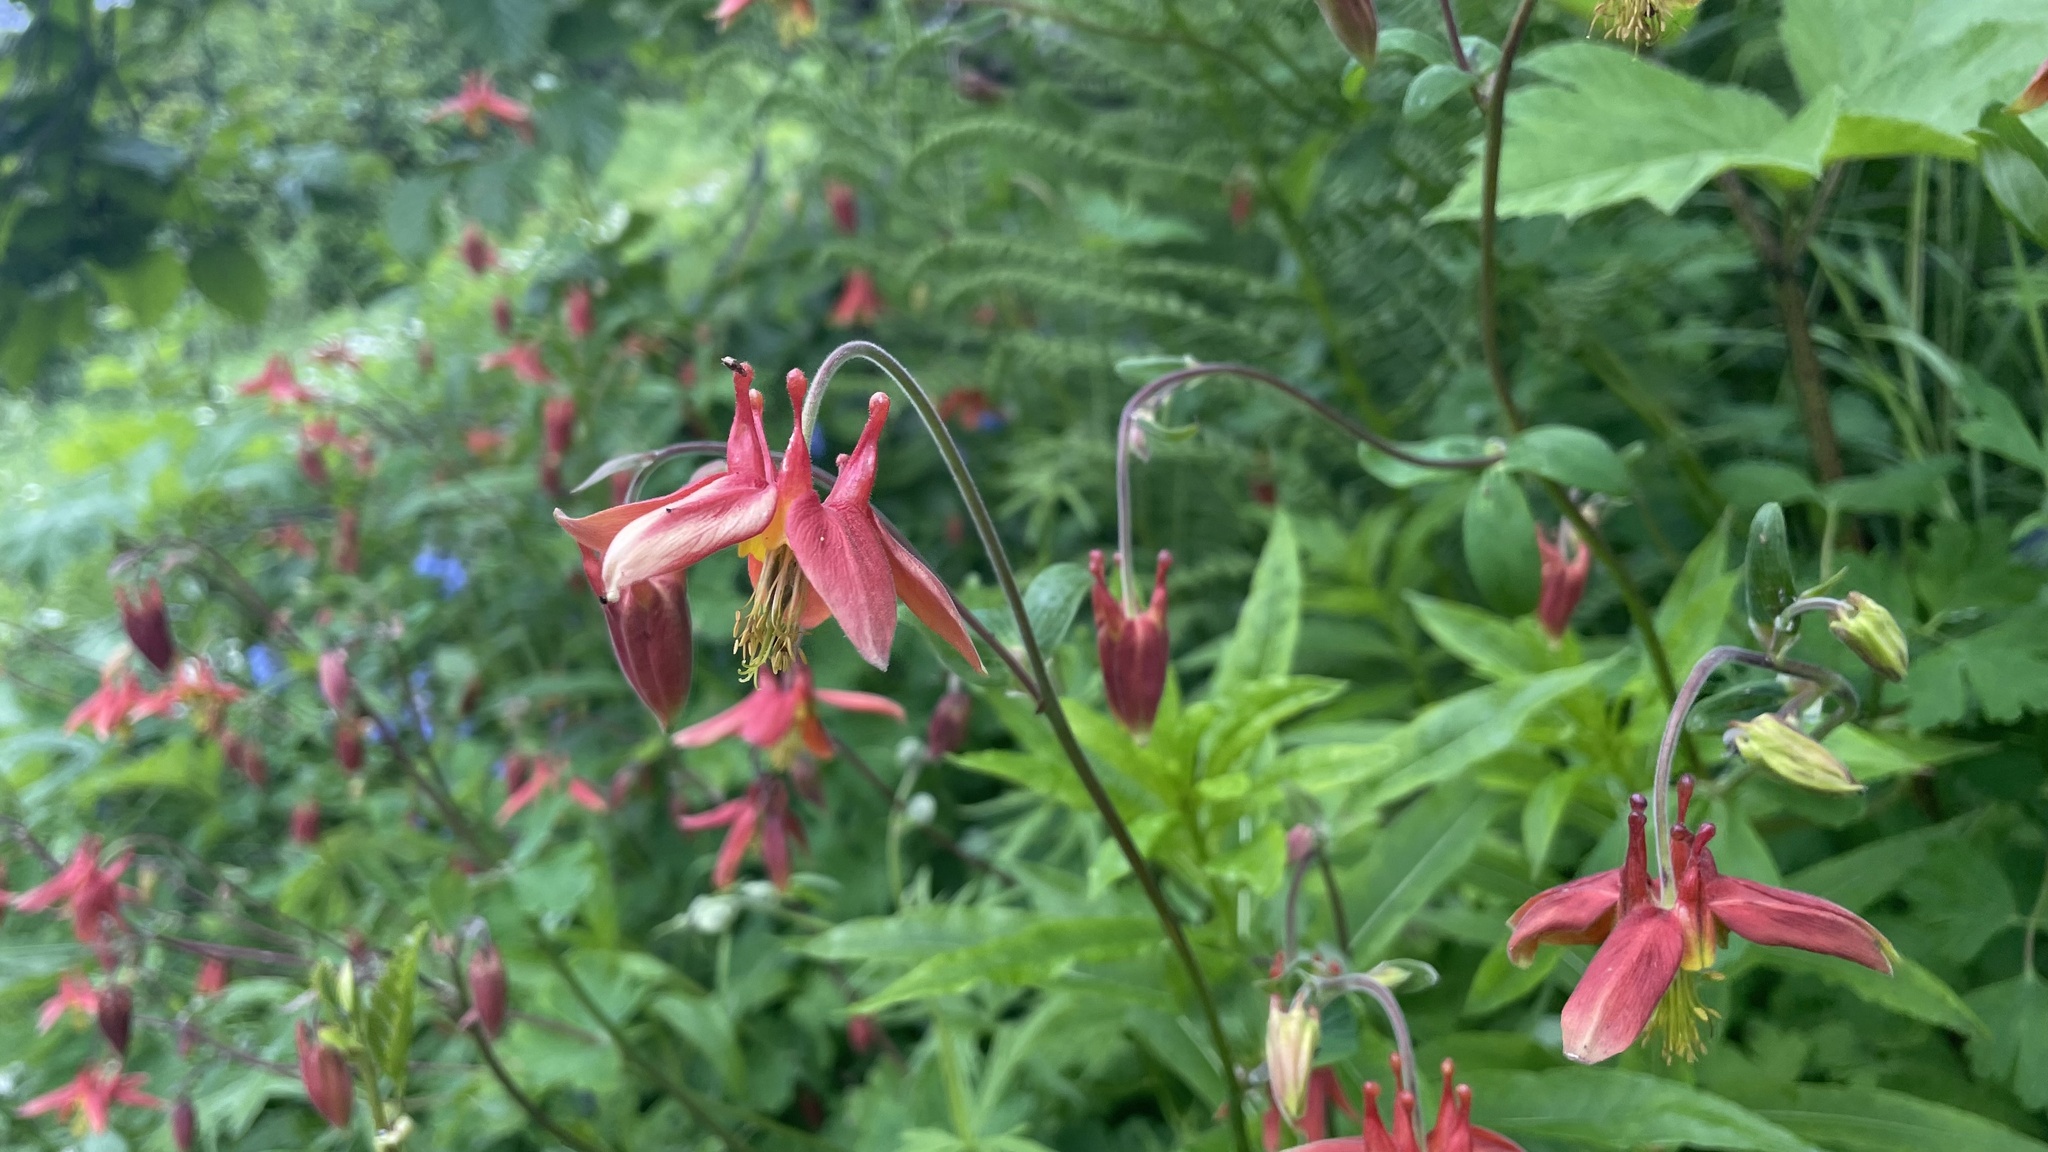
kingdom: Plantae
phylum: Tracheophyta
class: Magnoliopsida
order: Ranunculales
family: Ranunculaceae
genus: Aquilegia
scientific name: Aquilegia formosa
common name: Sitka columbine
